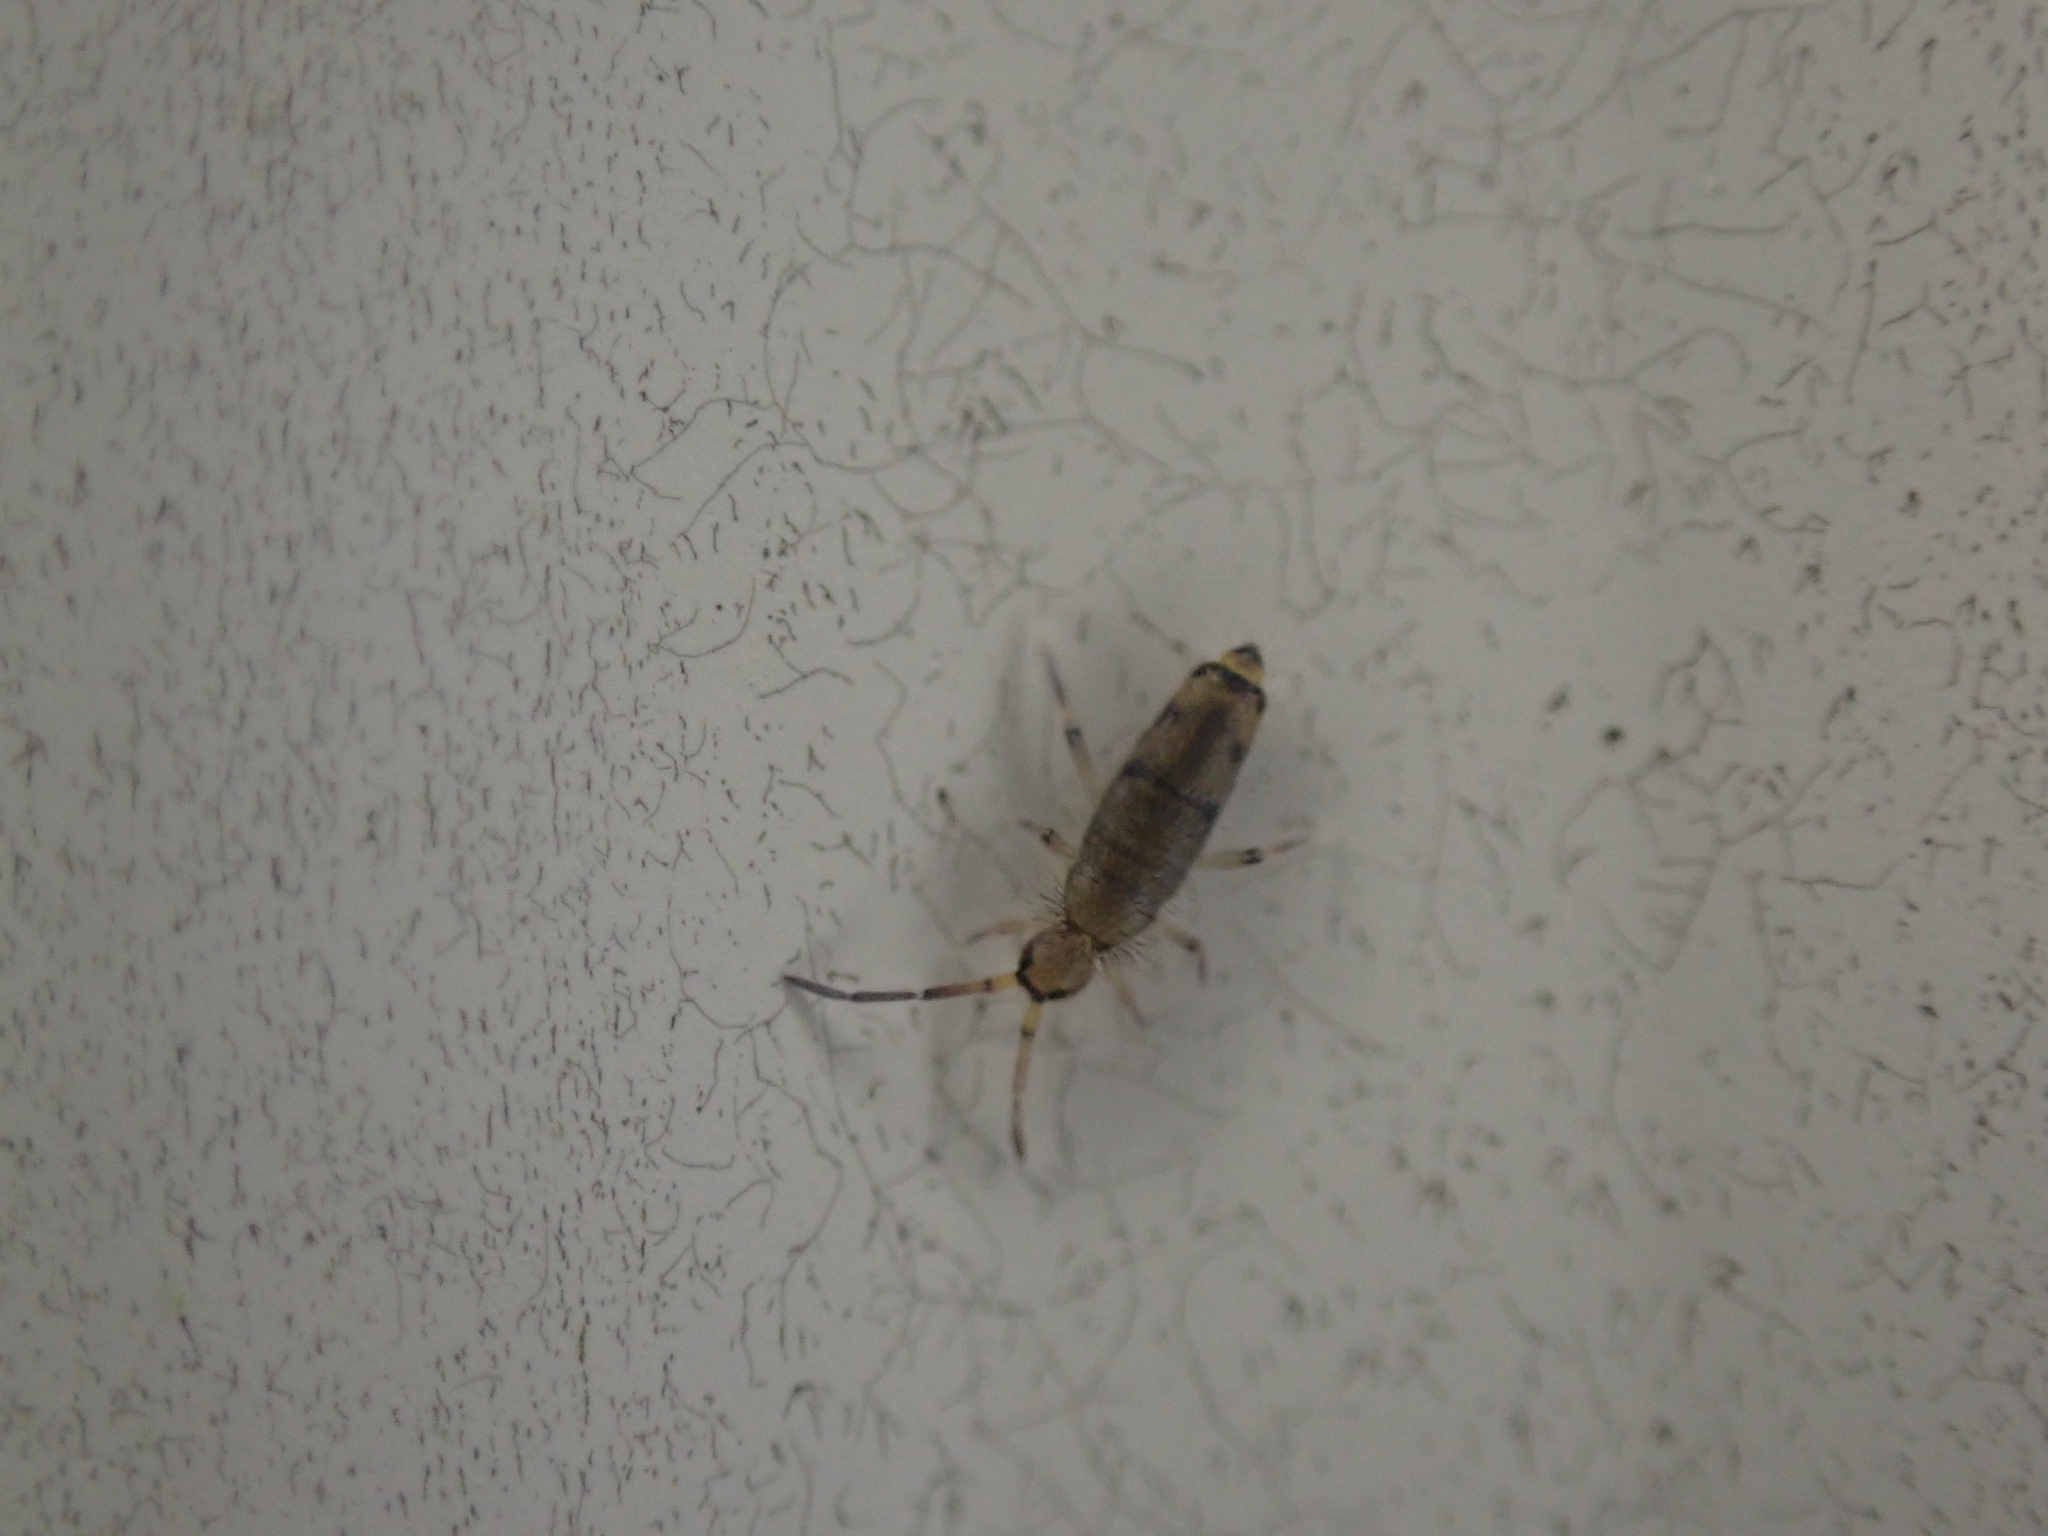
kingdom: Animalia
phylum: Arthropoda
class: Collembola
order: Entomobryomorpha
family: Entomobryidae
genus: Willowsia
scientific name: Willowsia nigromaculata
